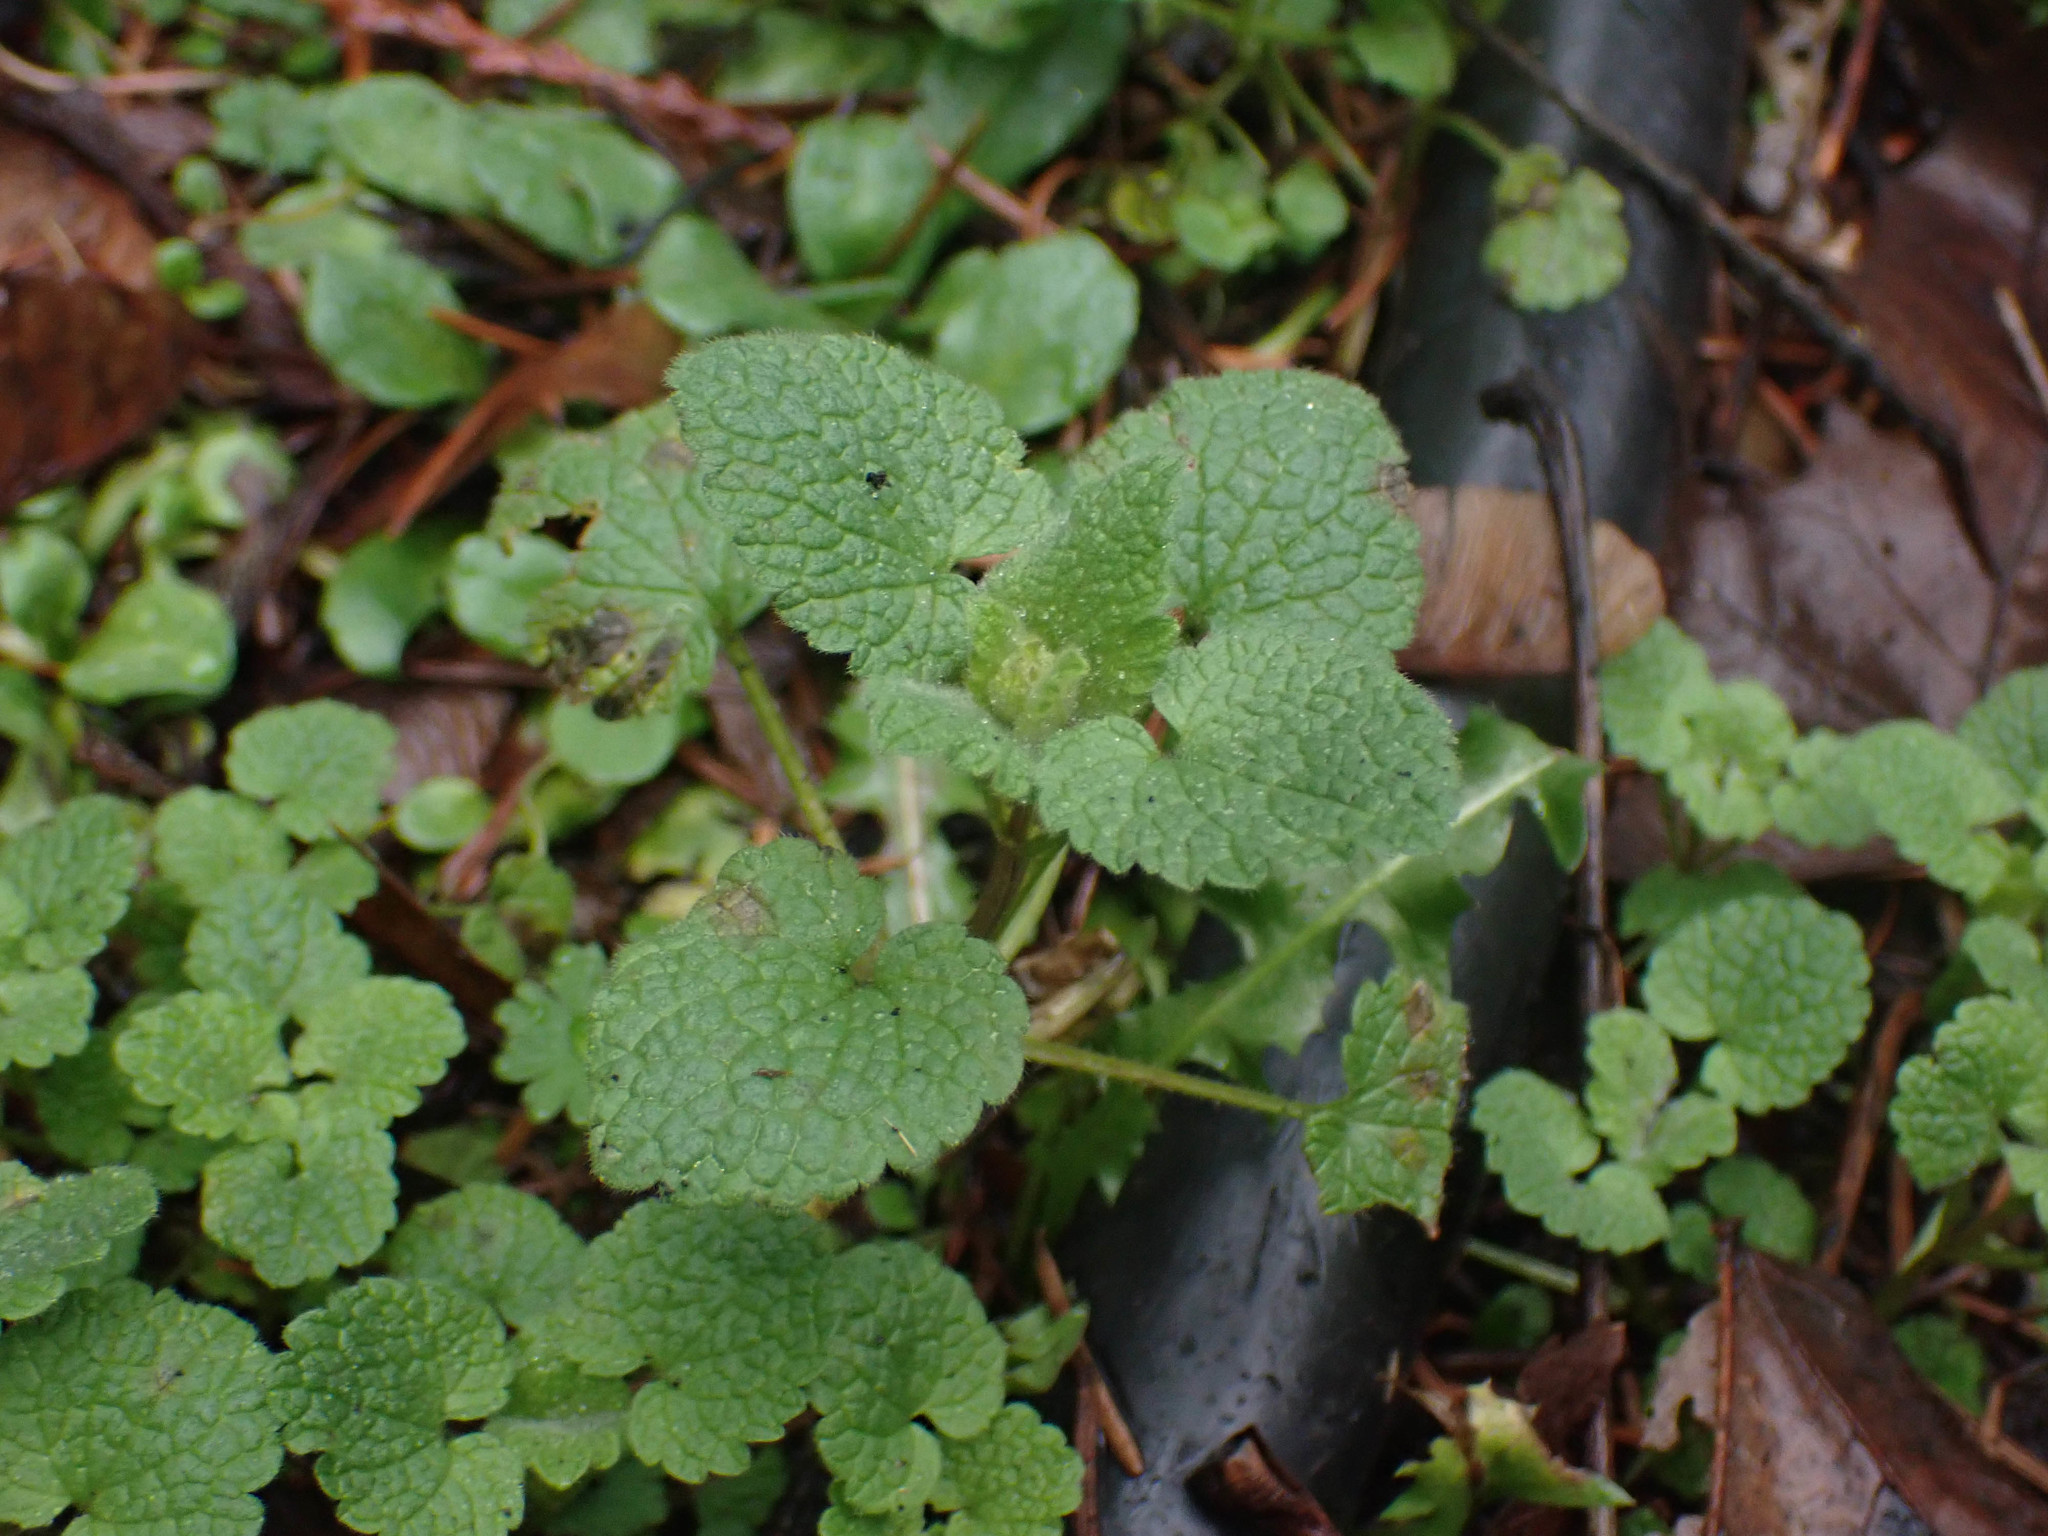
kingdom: Plantae
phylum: Tracheophyta
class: Magnoliopsida
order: Lamiales
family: Lamiaceae
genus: Lamium
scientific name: Lamium purpureum
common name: Red dead-nettle
